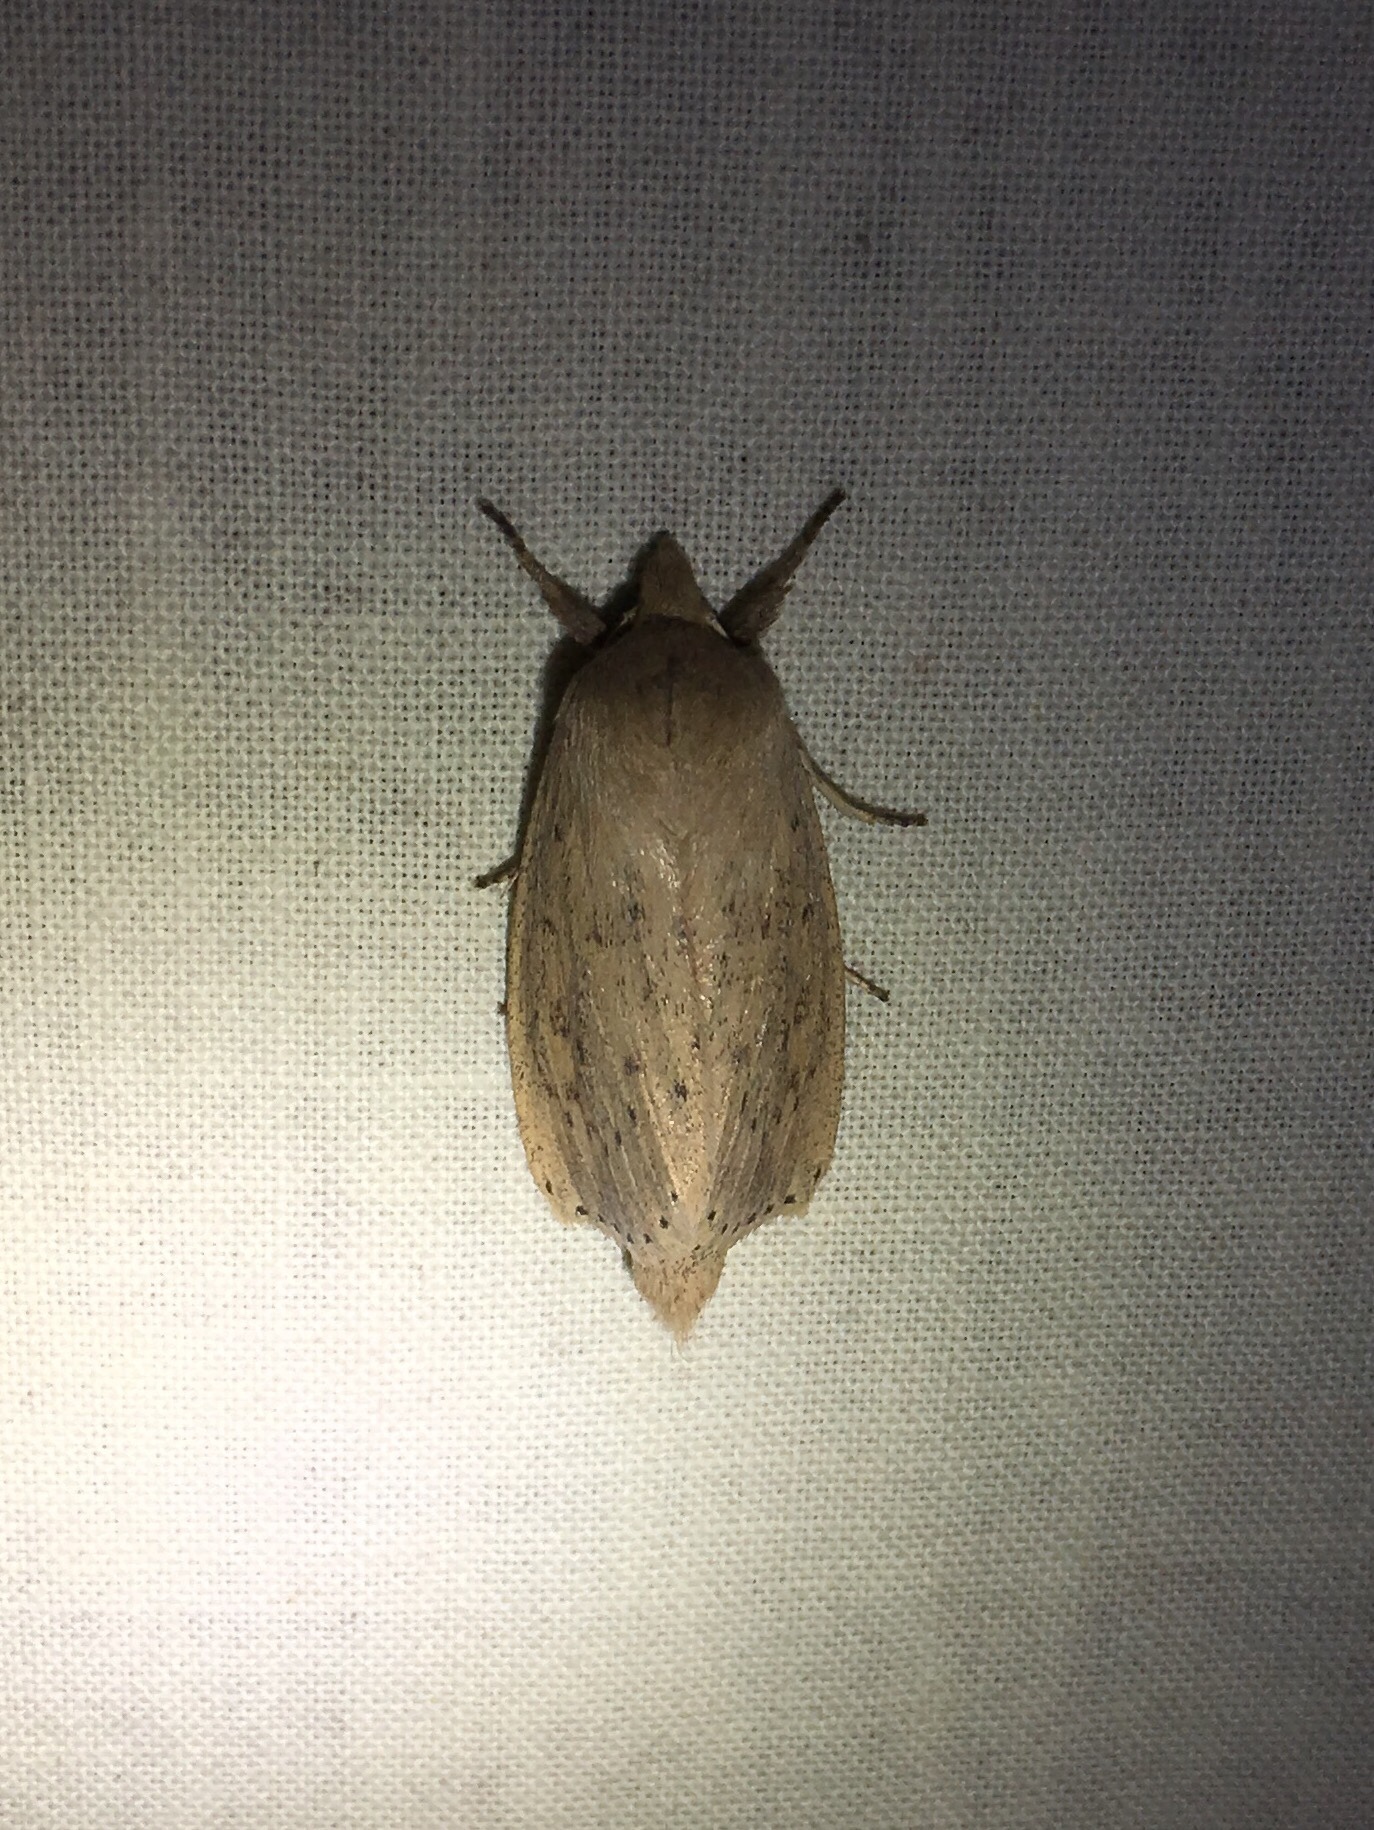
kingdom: Animalia
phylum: Arthropoda
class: Insecta
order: Lepidoptera
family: Noctuidae
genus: Globia
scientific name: Globia oblonga
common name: Oblong sedge borer moth
